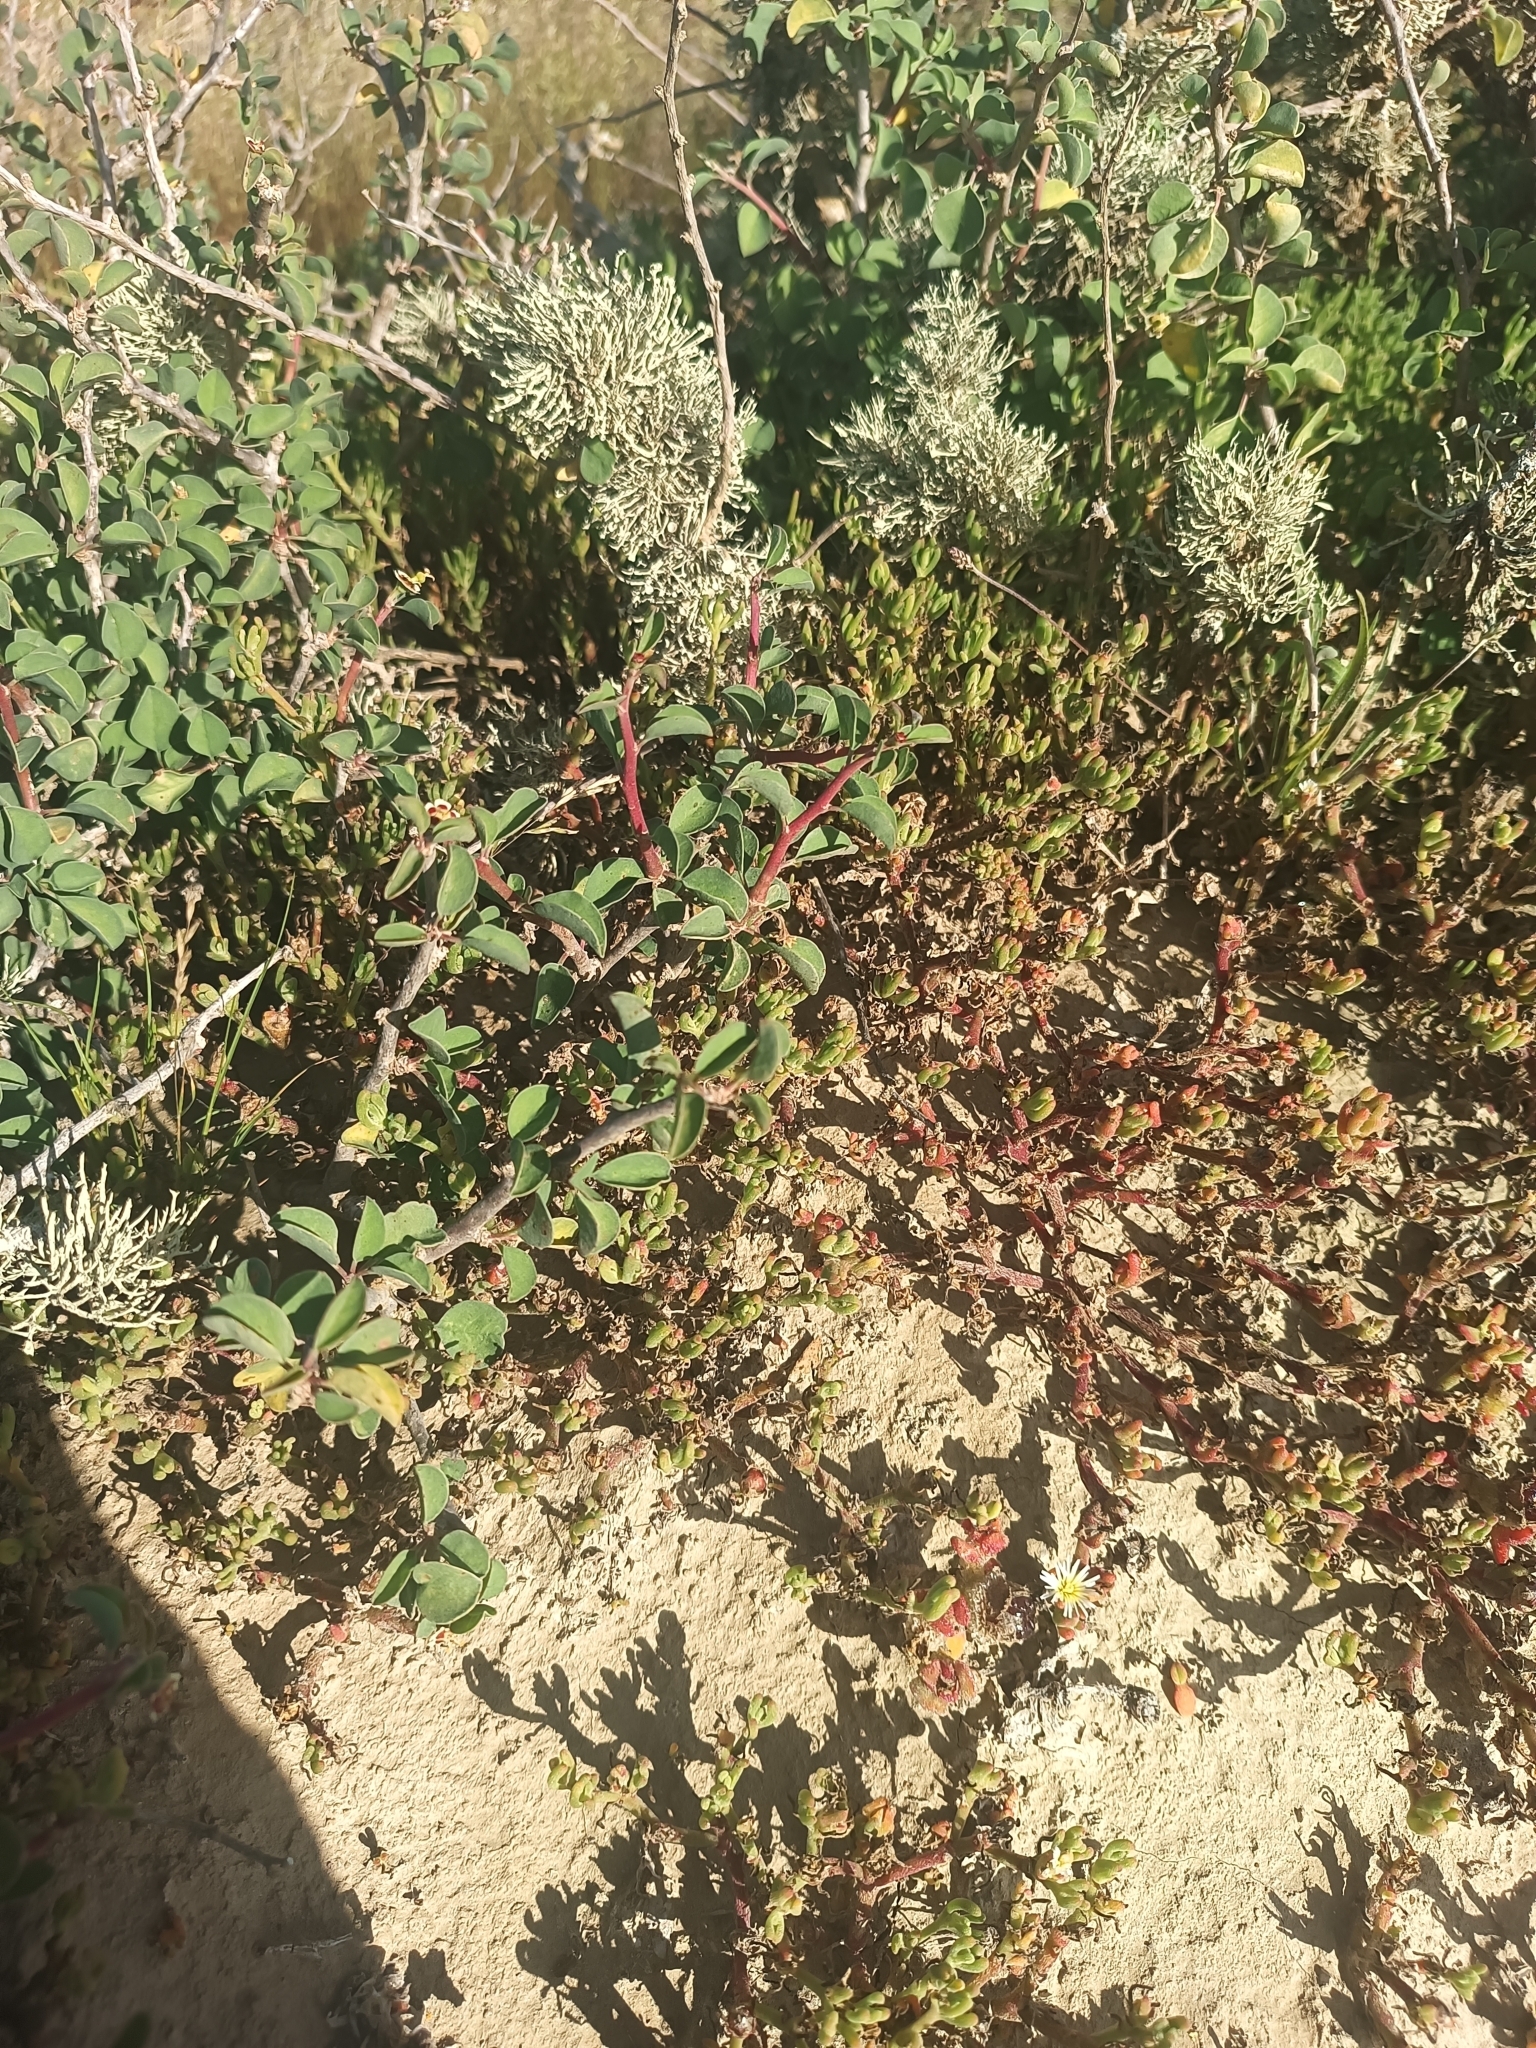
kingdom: Plantae
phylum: Tracheophyta
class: Magnoliopsida
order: Malpighiales
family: Euphorbiaceae
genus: Euphorbia
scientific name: Euphorbia misera
